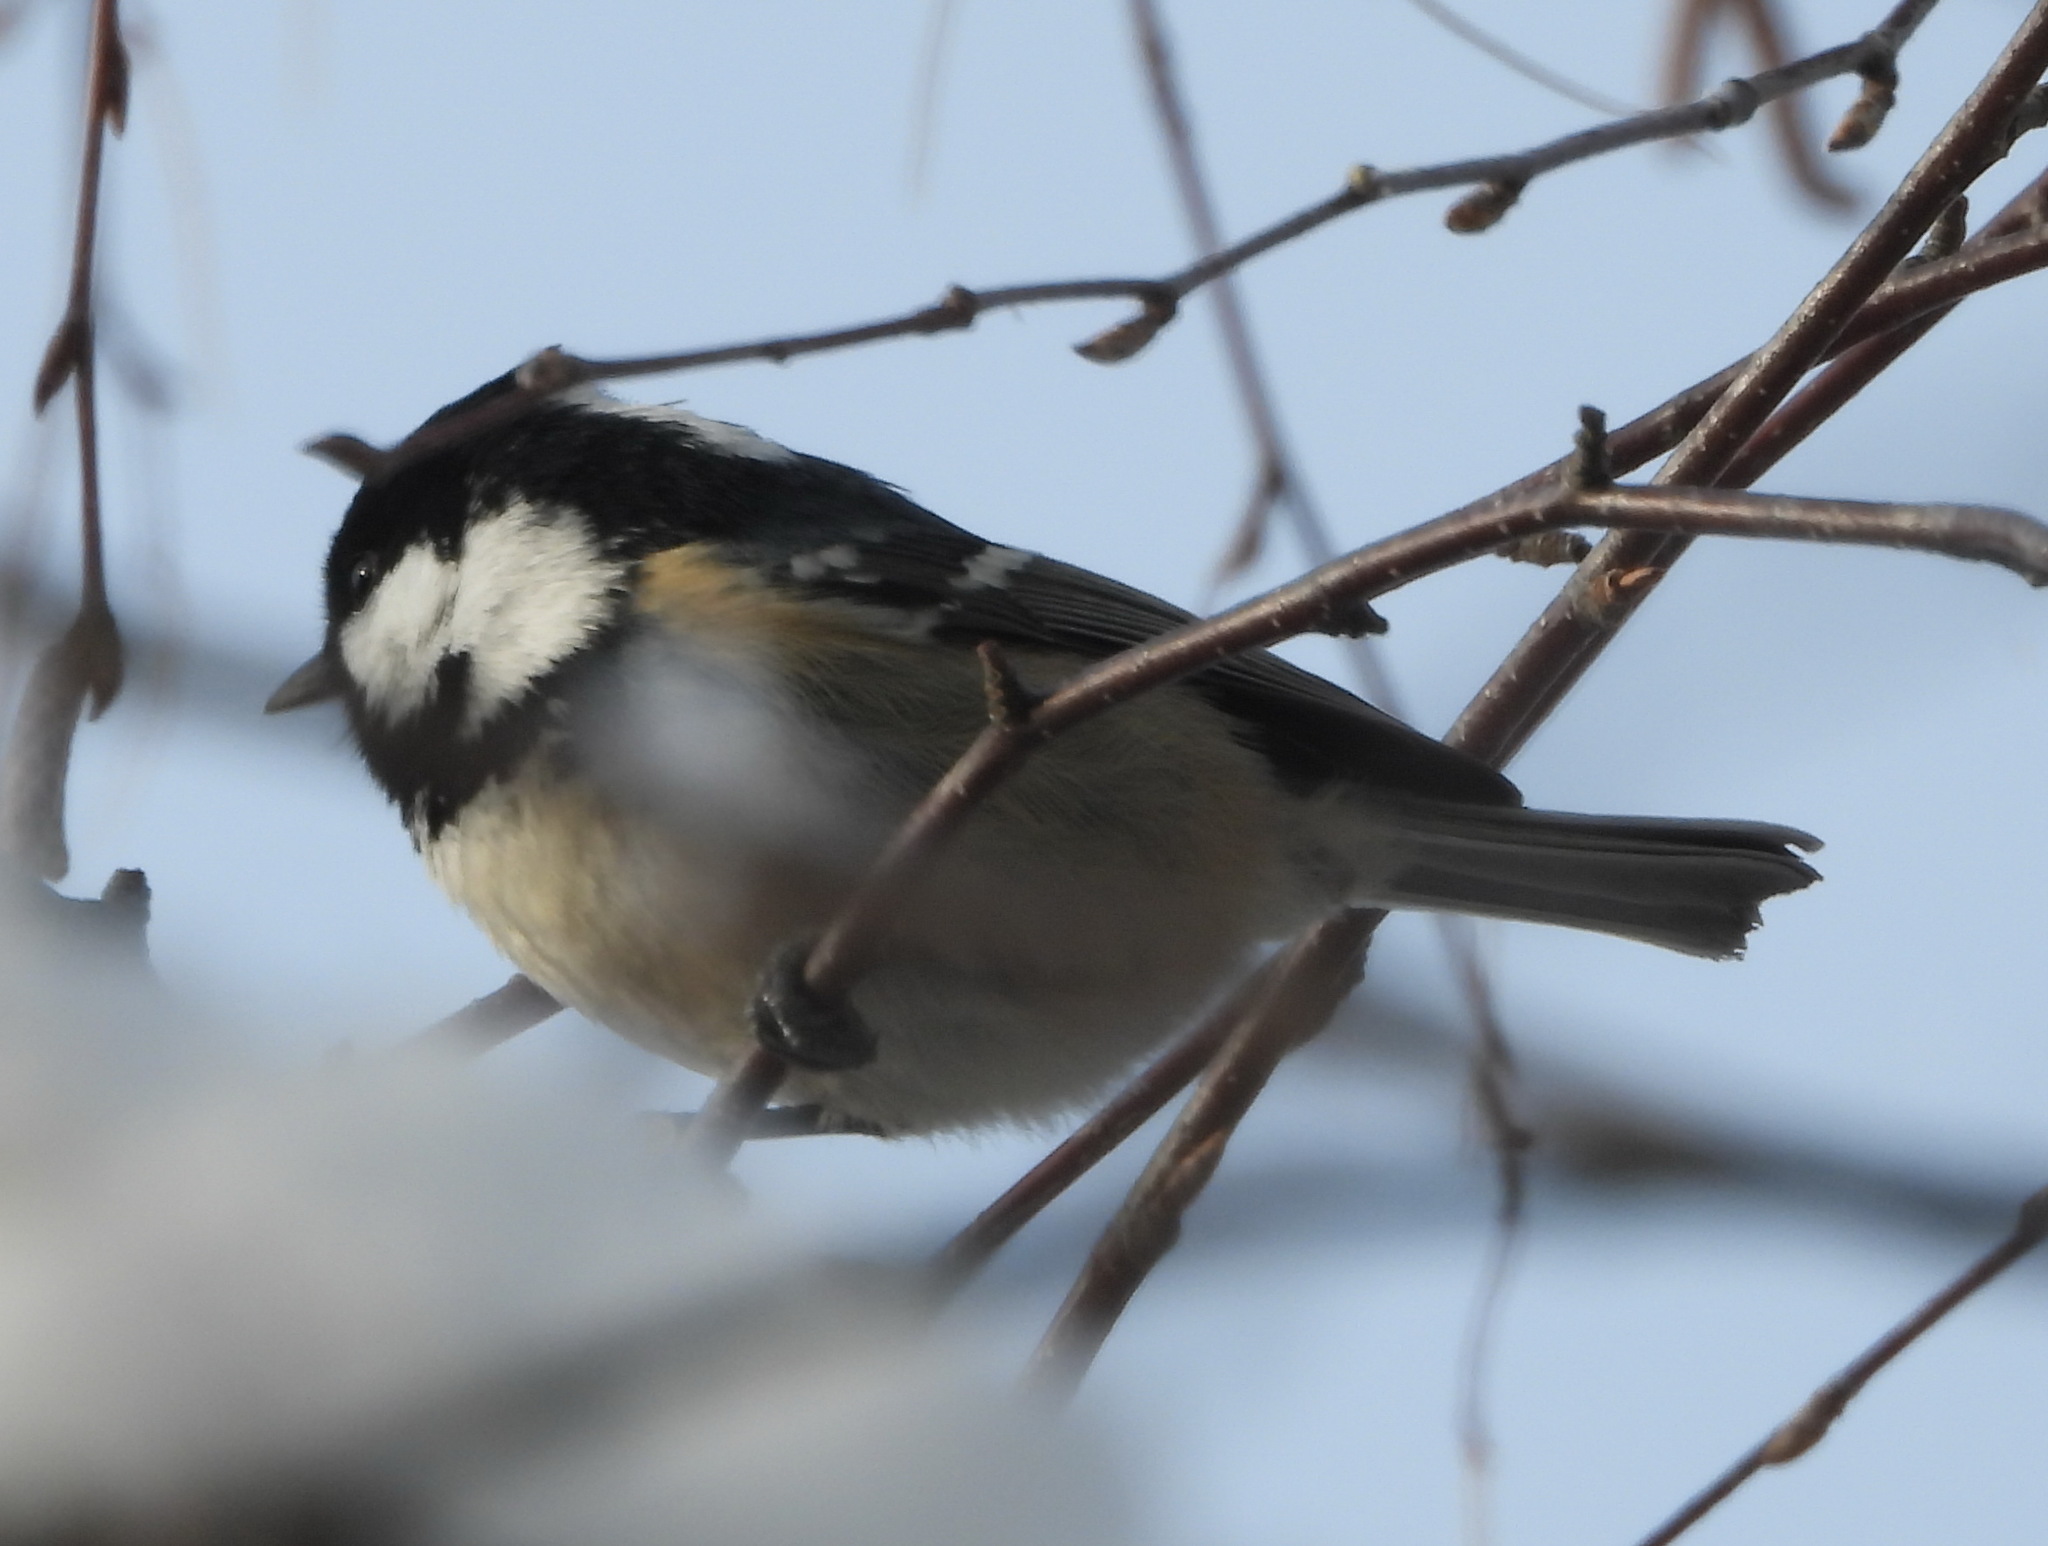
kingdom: Animalia
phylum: Chordata
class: Aves
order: Passeriformes
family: Paridae
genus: Periparus
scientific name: Periparus ater
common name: Coal tit
